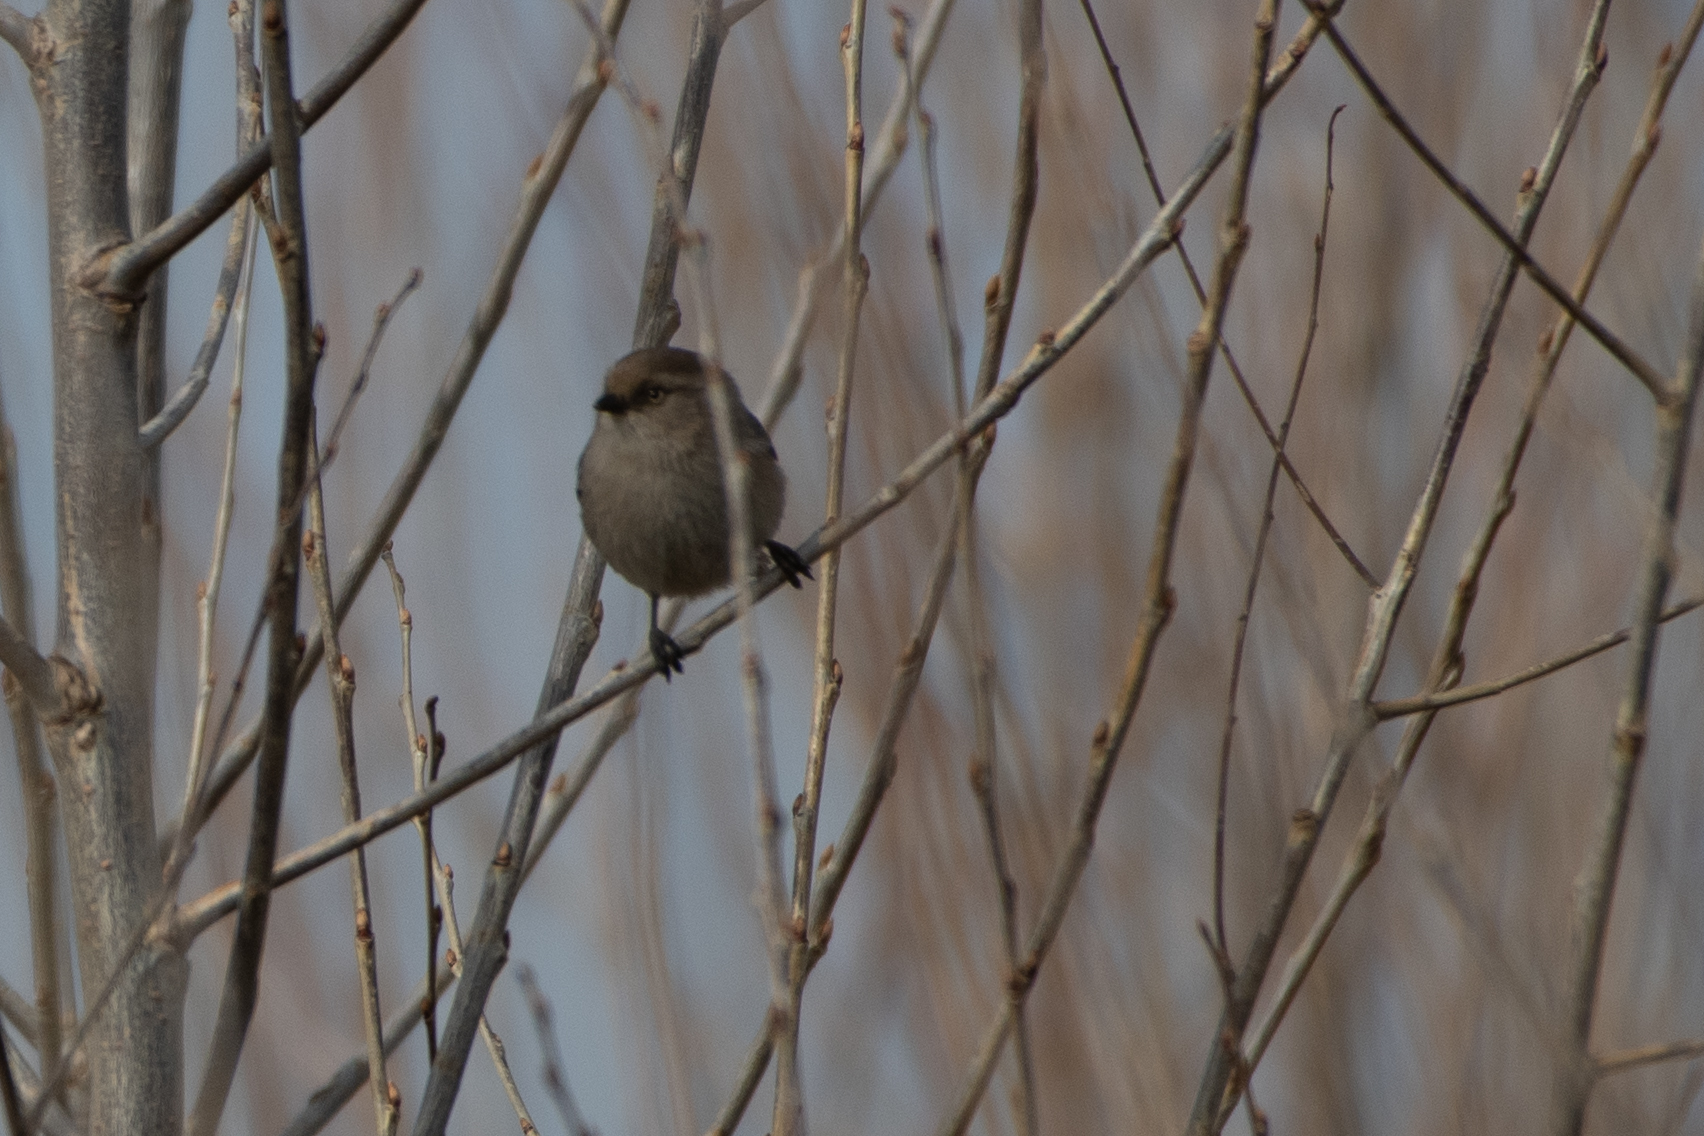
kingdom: Animalia
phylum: Chordata
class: Aves
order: Passeriformes
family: Aegithalidae
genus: Psaltriparus
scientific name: Psaltriparus minimus
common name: American bushtit
